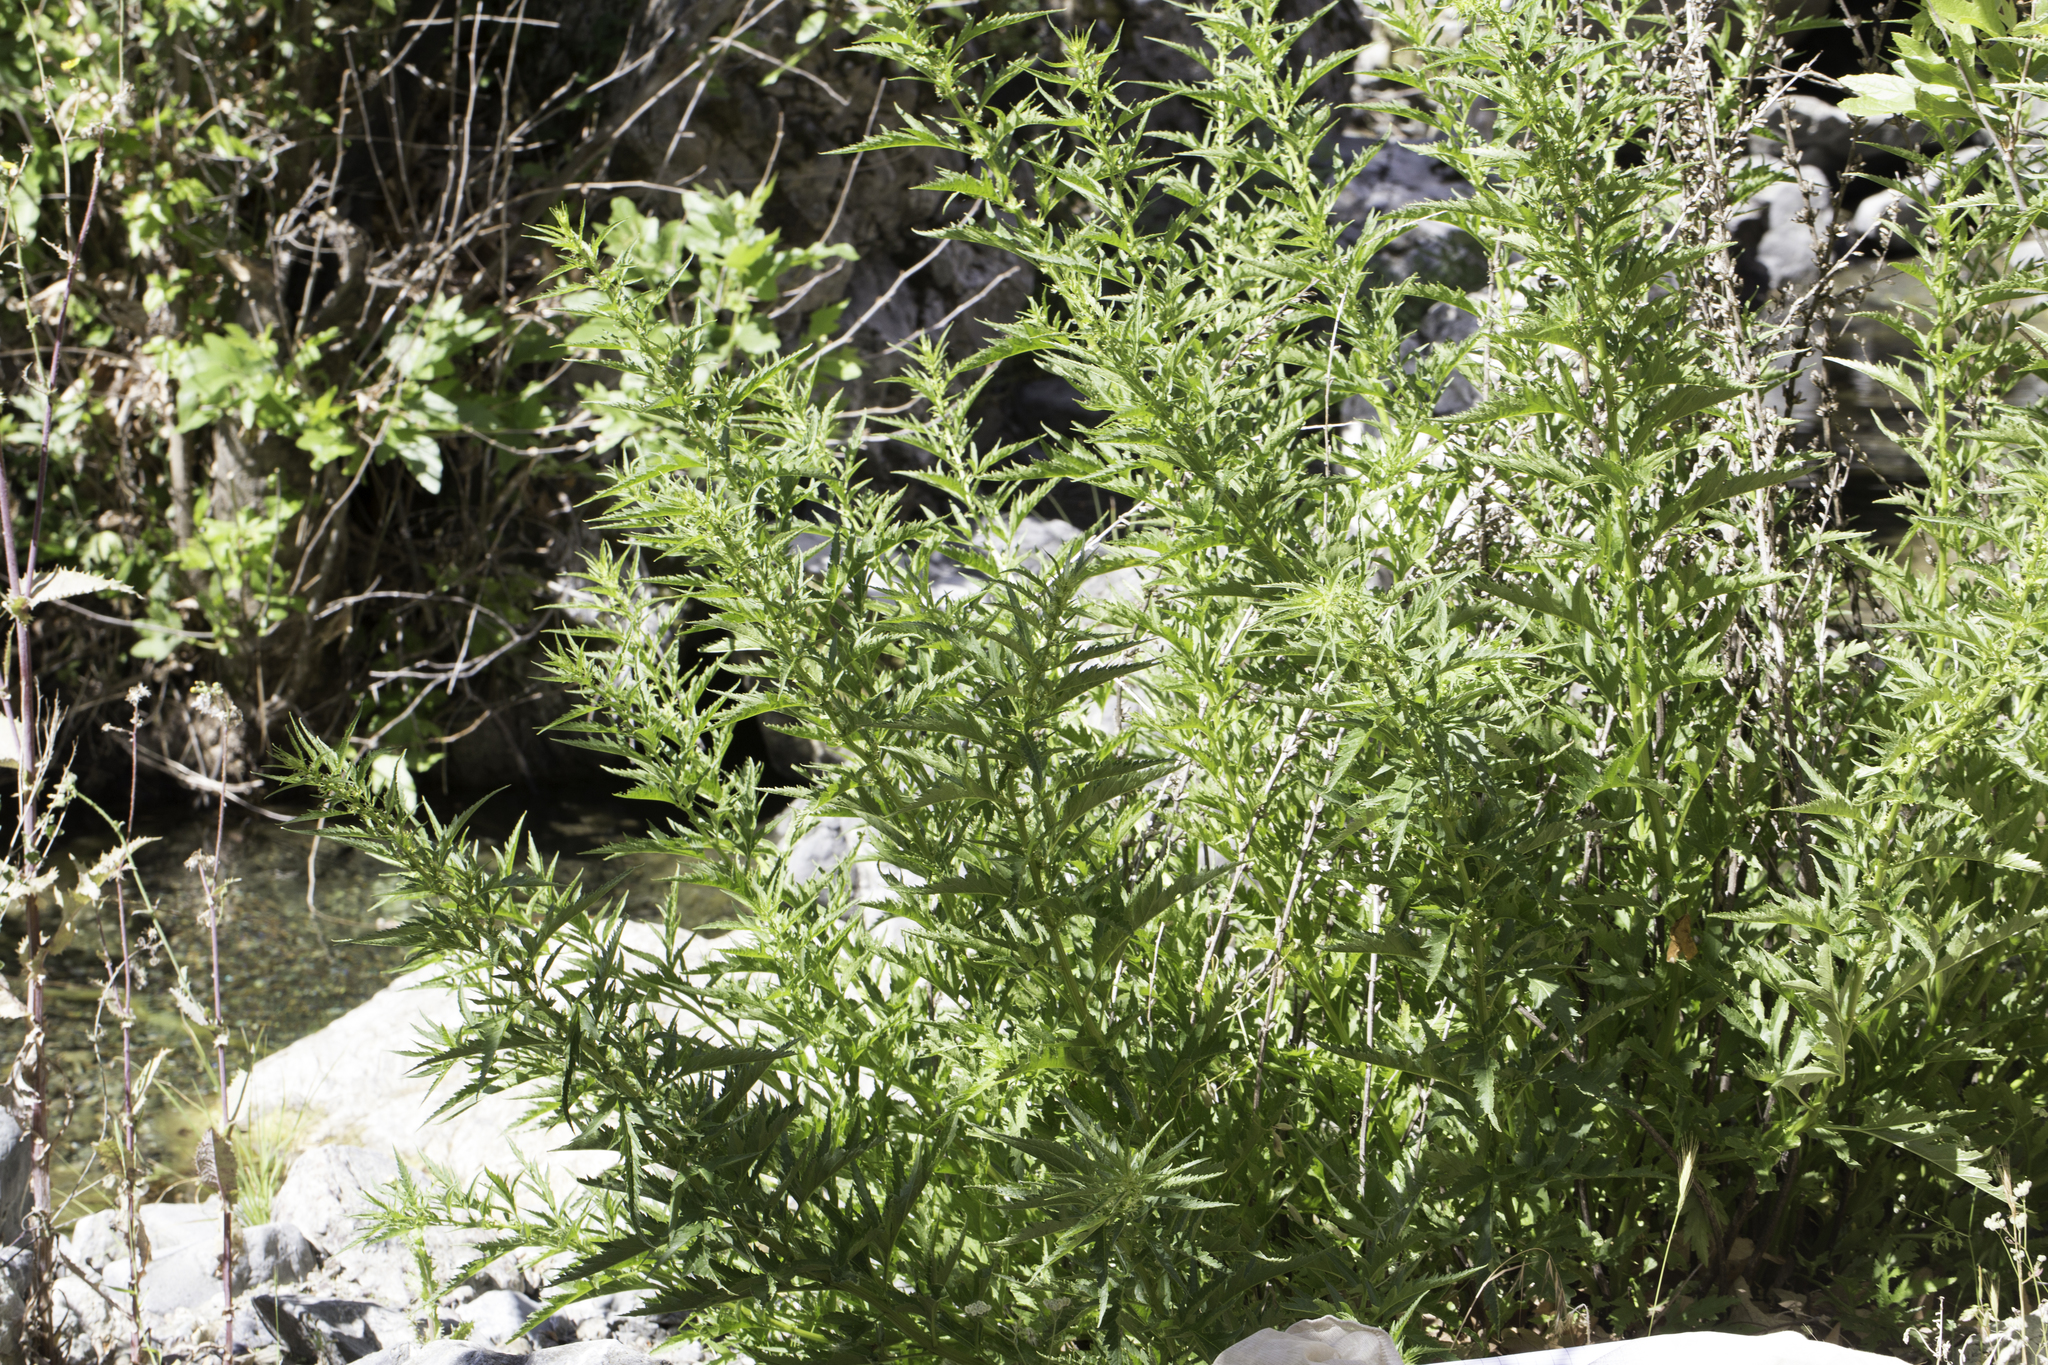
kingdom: Plantae
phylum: Tracheophyta
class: Magnoliopsida
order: Cucurbitales
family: Datiscaceae
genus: Datisca
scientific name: Datisca glomerata
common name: Durango-root
